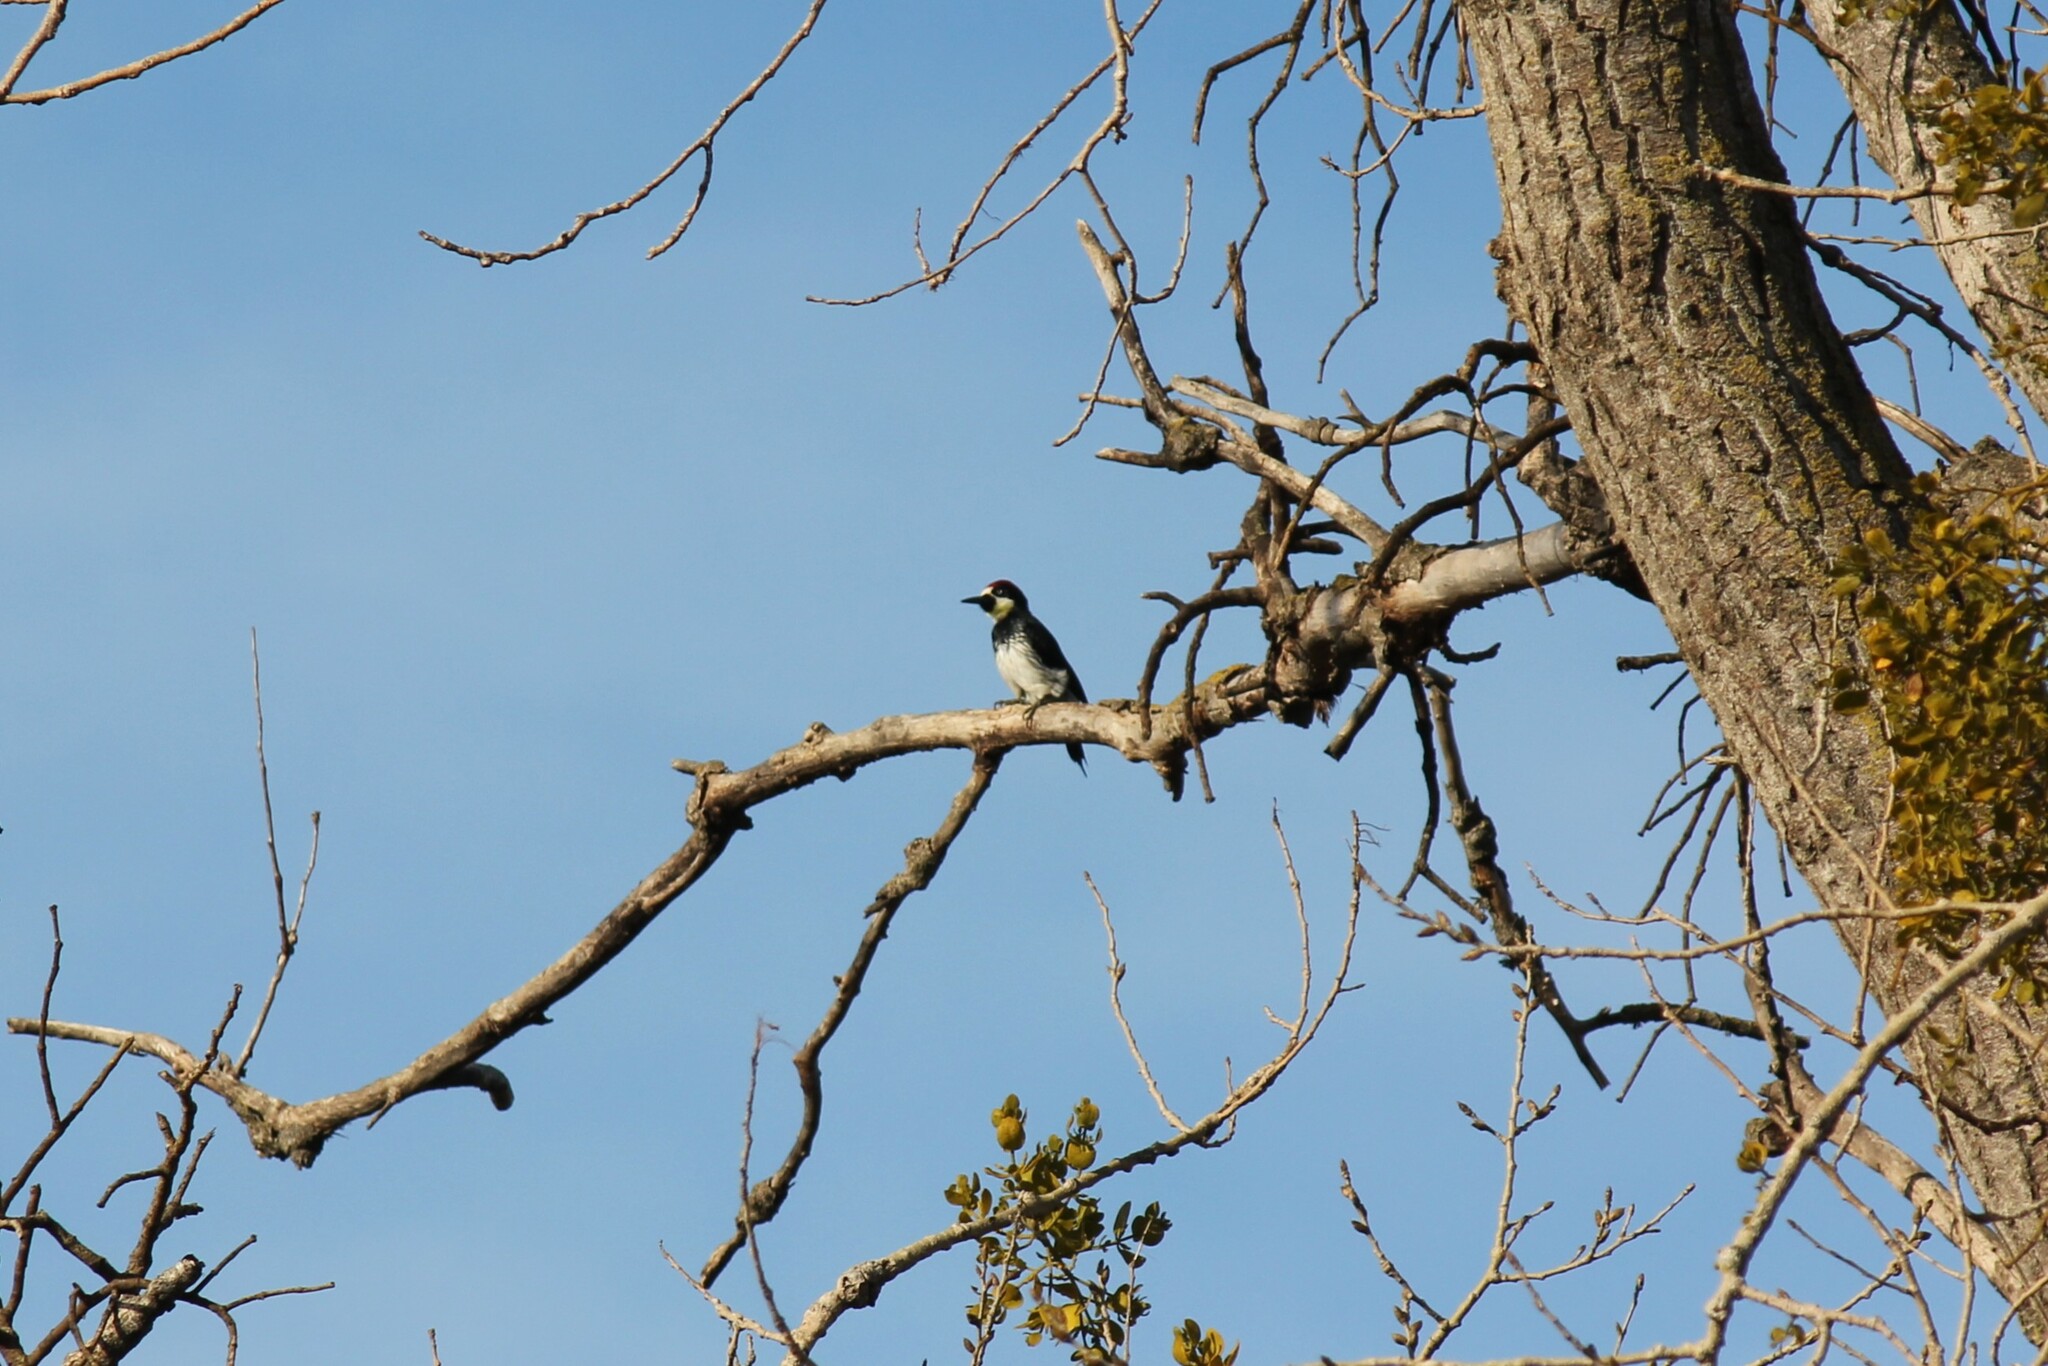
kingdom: Animalia
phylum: Chordata
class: Aves
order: Piciformes
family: Picidae
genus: Melanerpes
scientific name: Melanerpes formicivorus
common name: Acorn woodpecker
